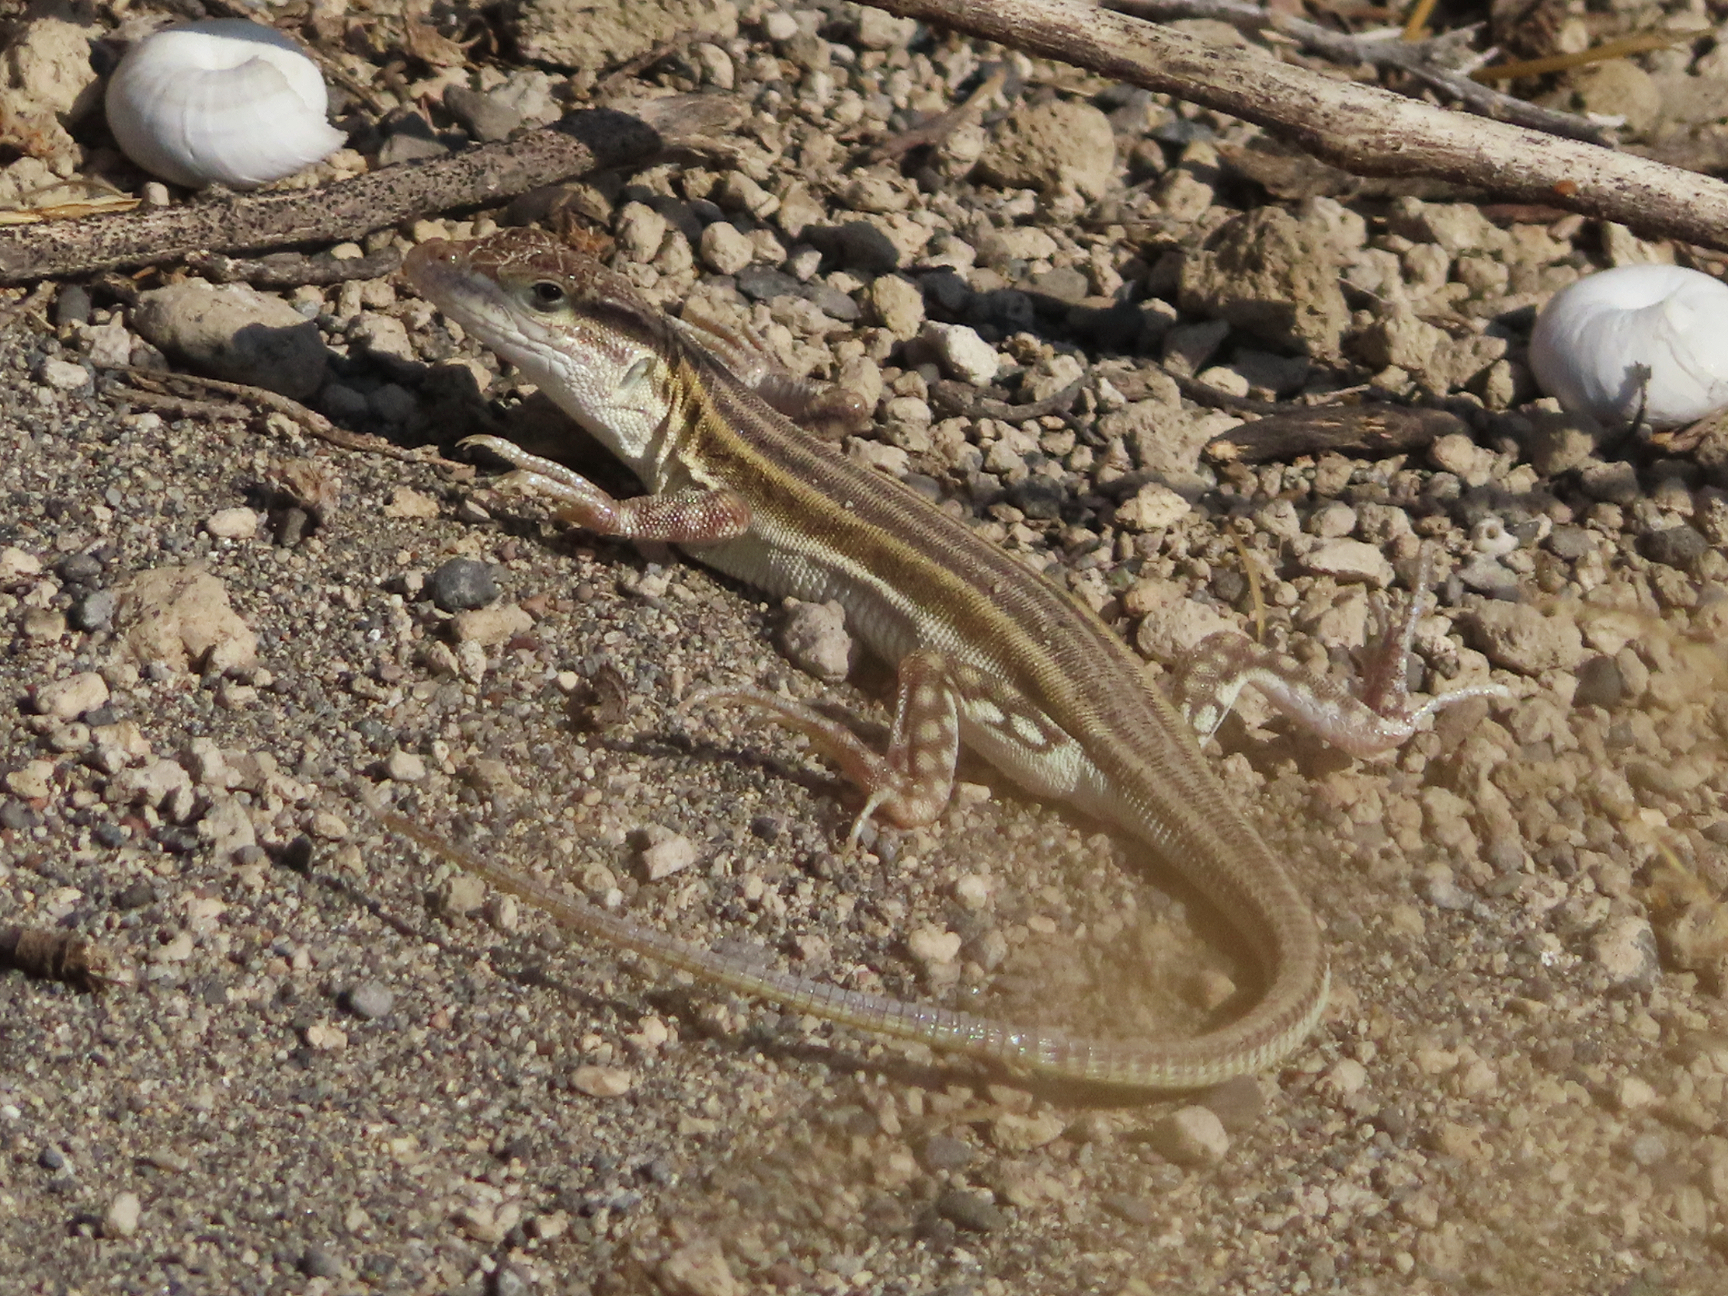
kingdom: Animalia
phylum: Chordata
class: Squamata
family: Lacertidae
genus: Eremias
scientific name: Eremias pleskei
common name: Pleske's racerunner
